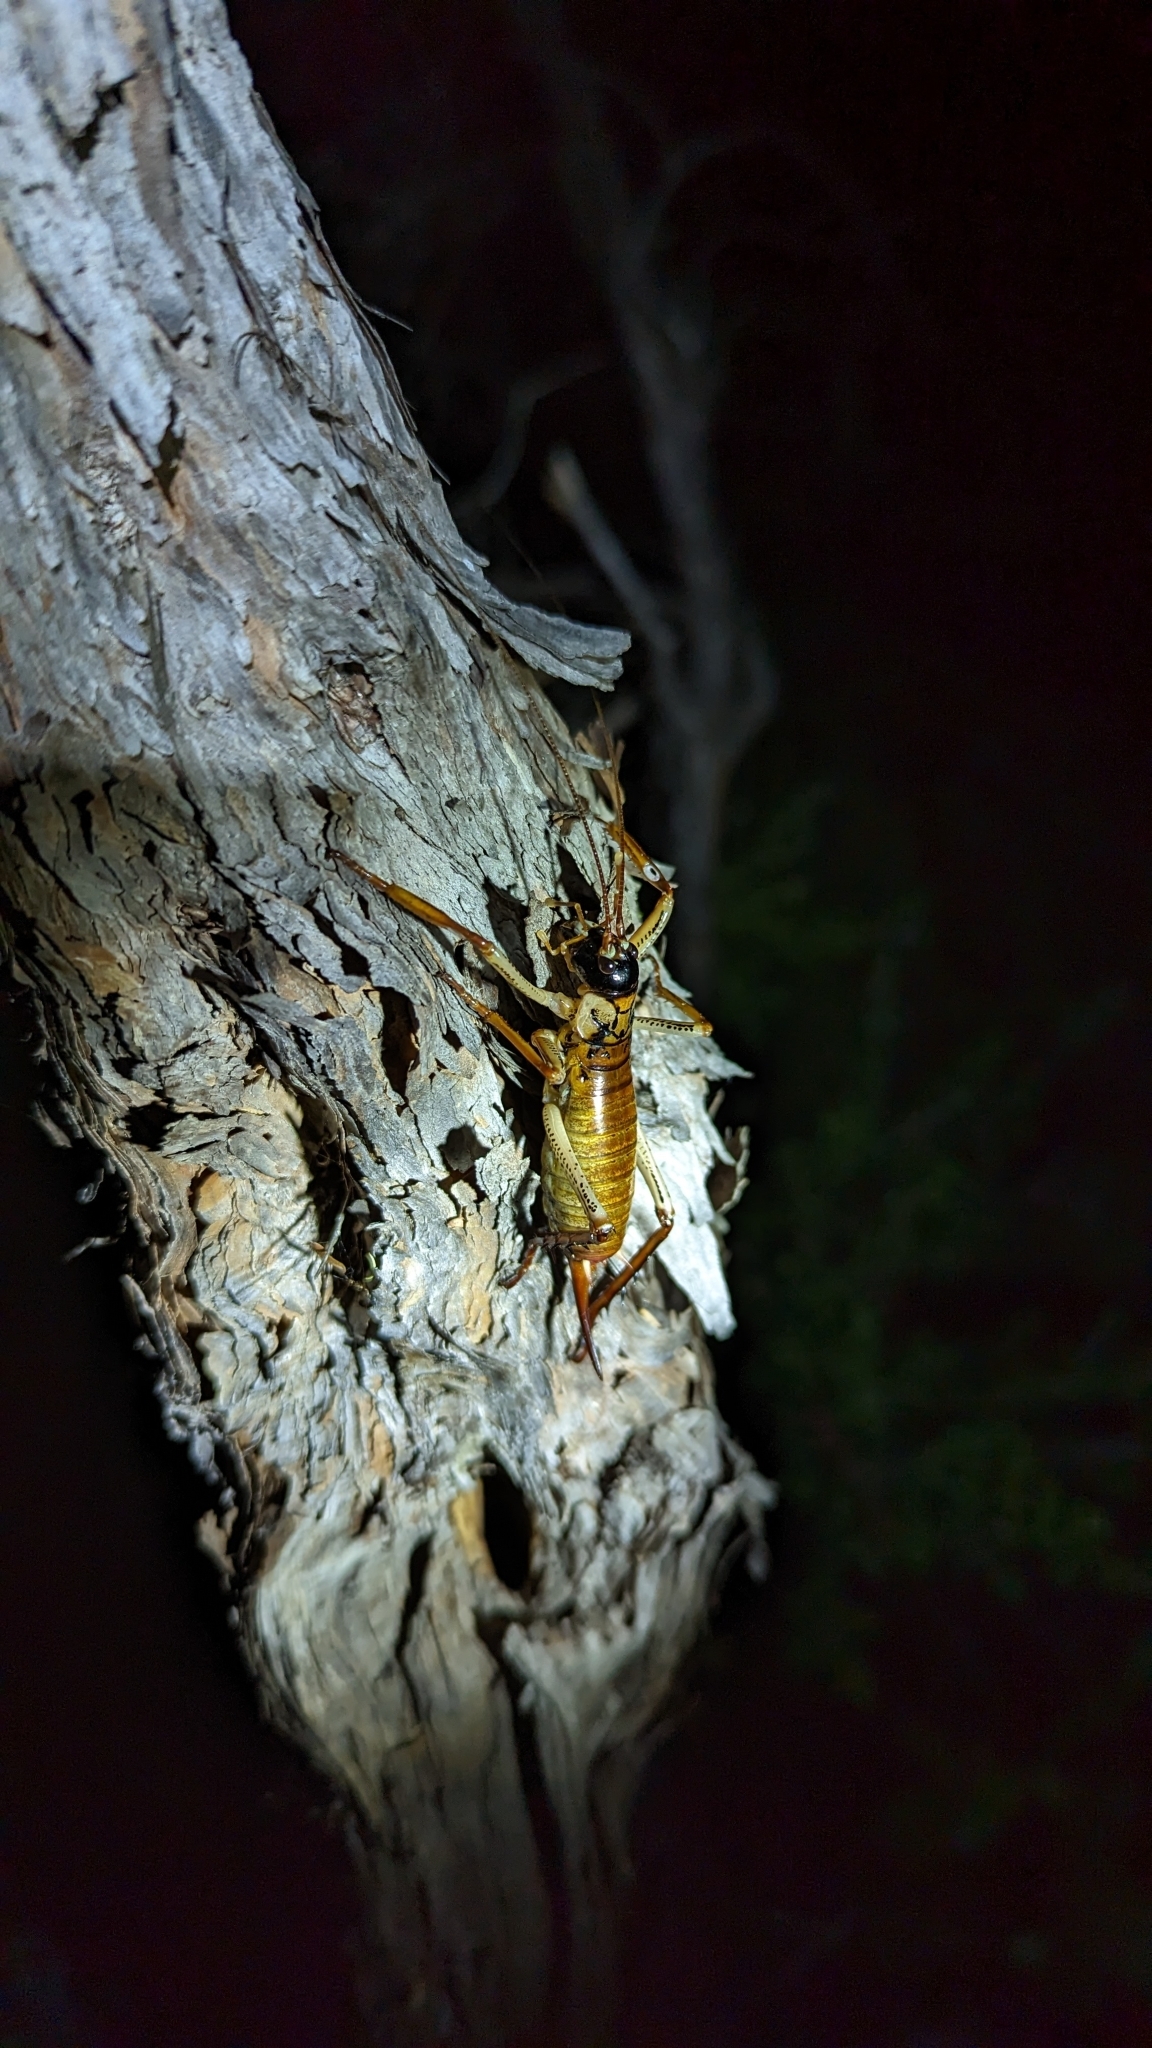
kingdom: Animalia
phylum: Arthropoda
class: Insecta
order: Orthoptera
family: Anostostomatidae
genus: Hemideina
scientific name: Hemideina thoracica
